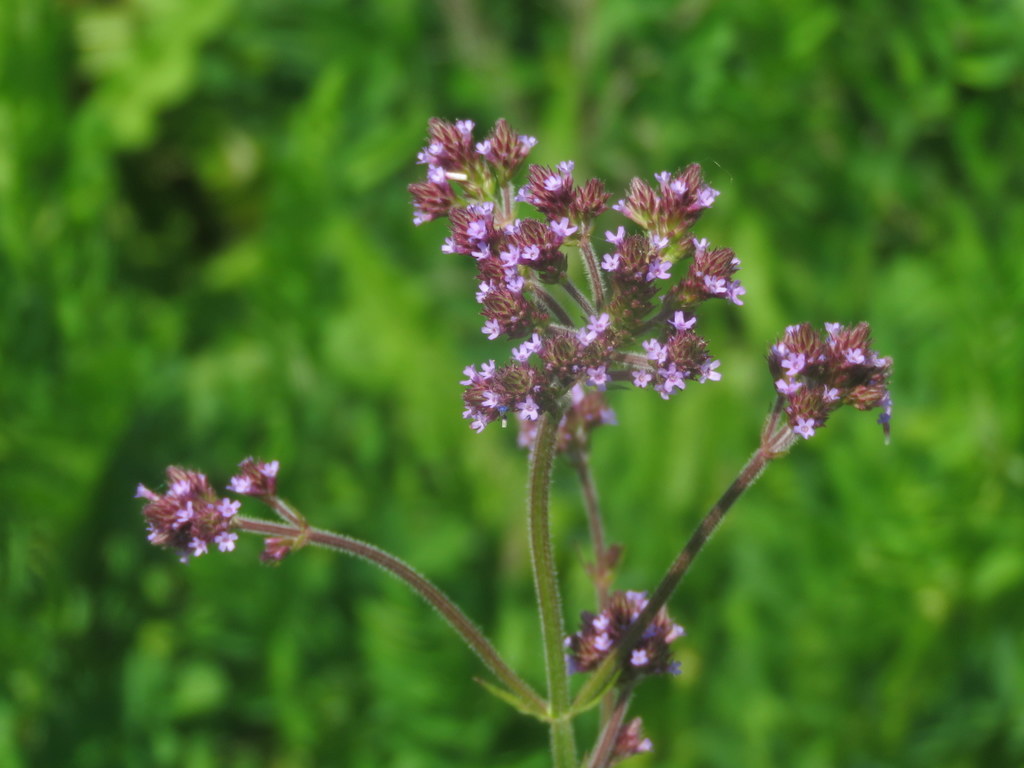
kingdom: Plantae
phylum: Tracheophyta
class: Magnoliopsida
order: Lamiales
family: Verbenaceae
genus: Verbena
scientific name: Verbena bonariensis
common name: Purpletop vervain
